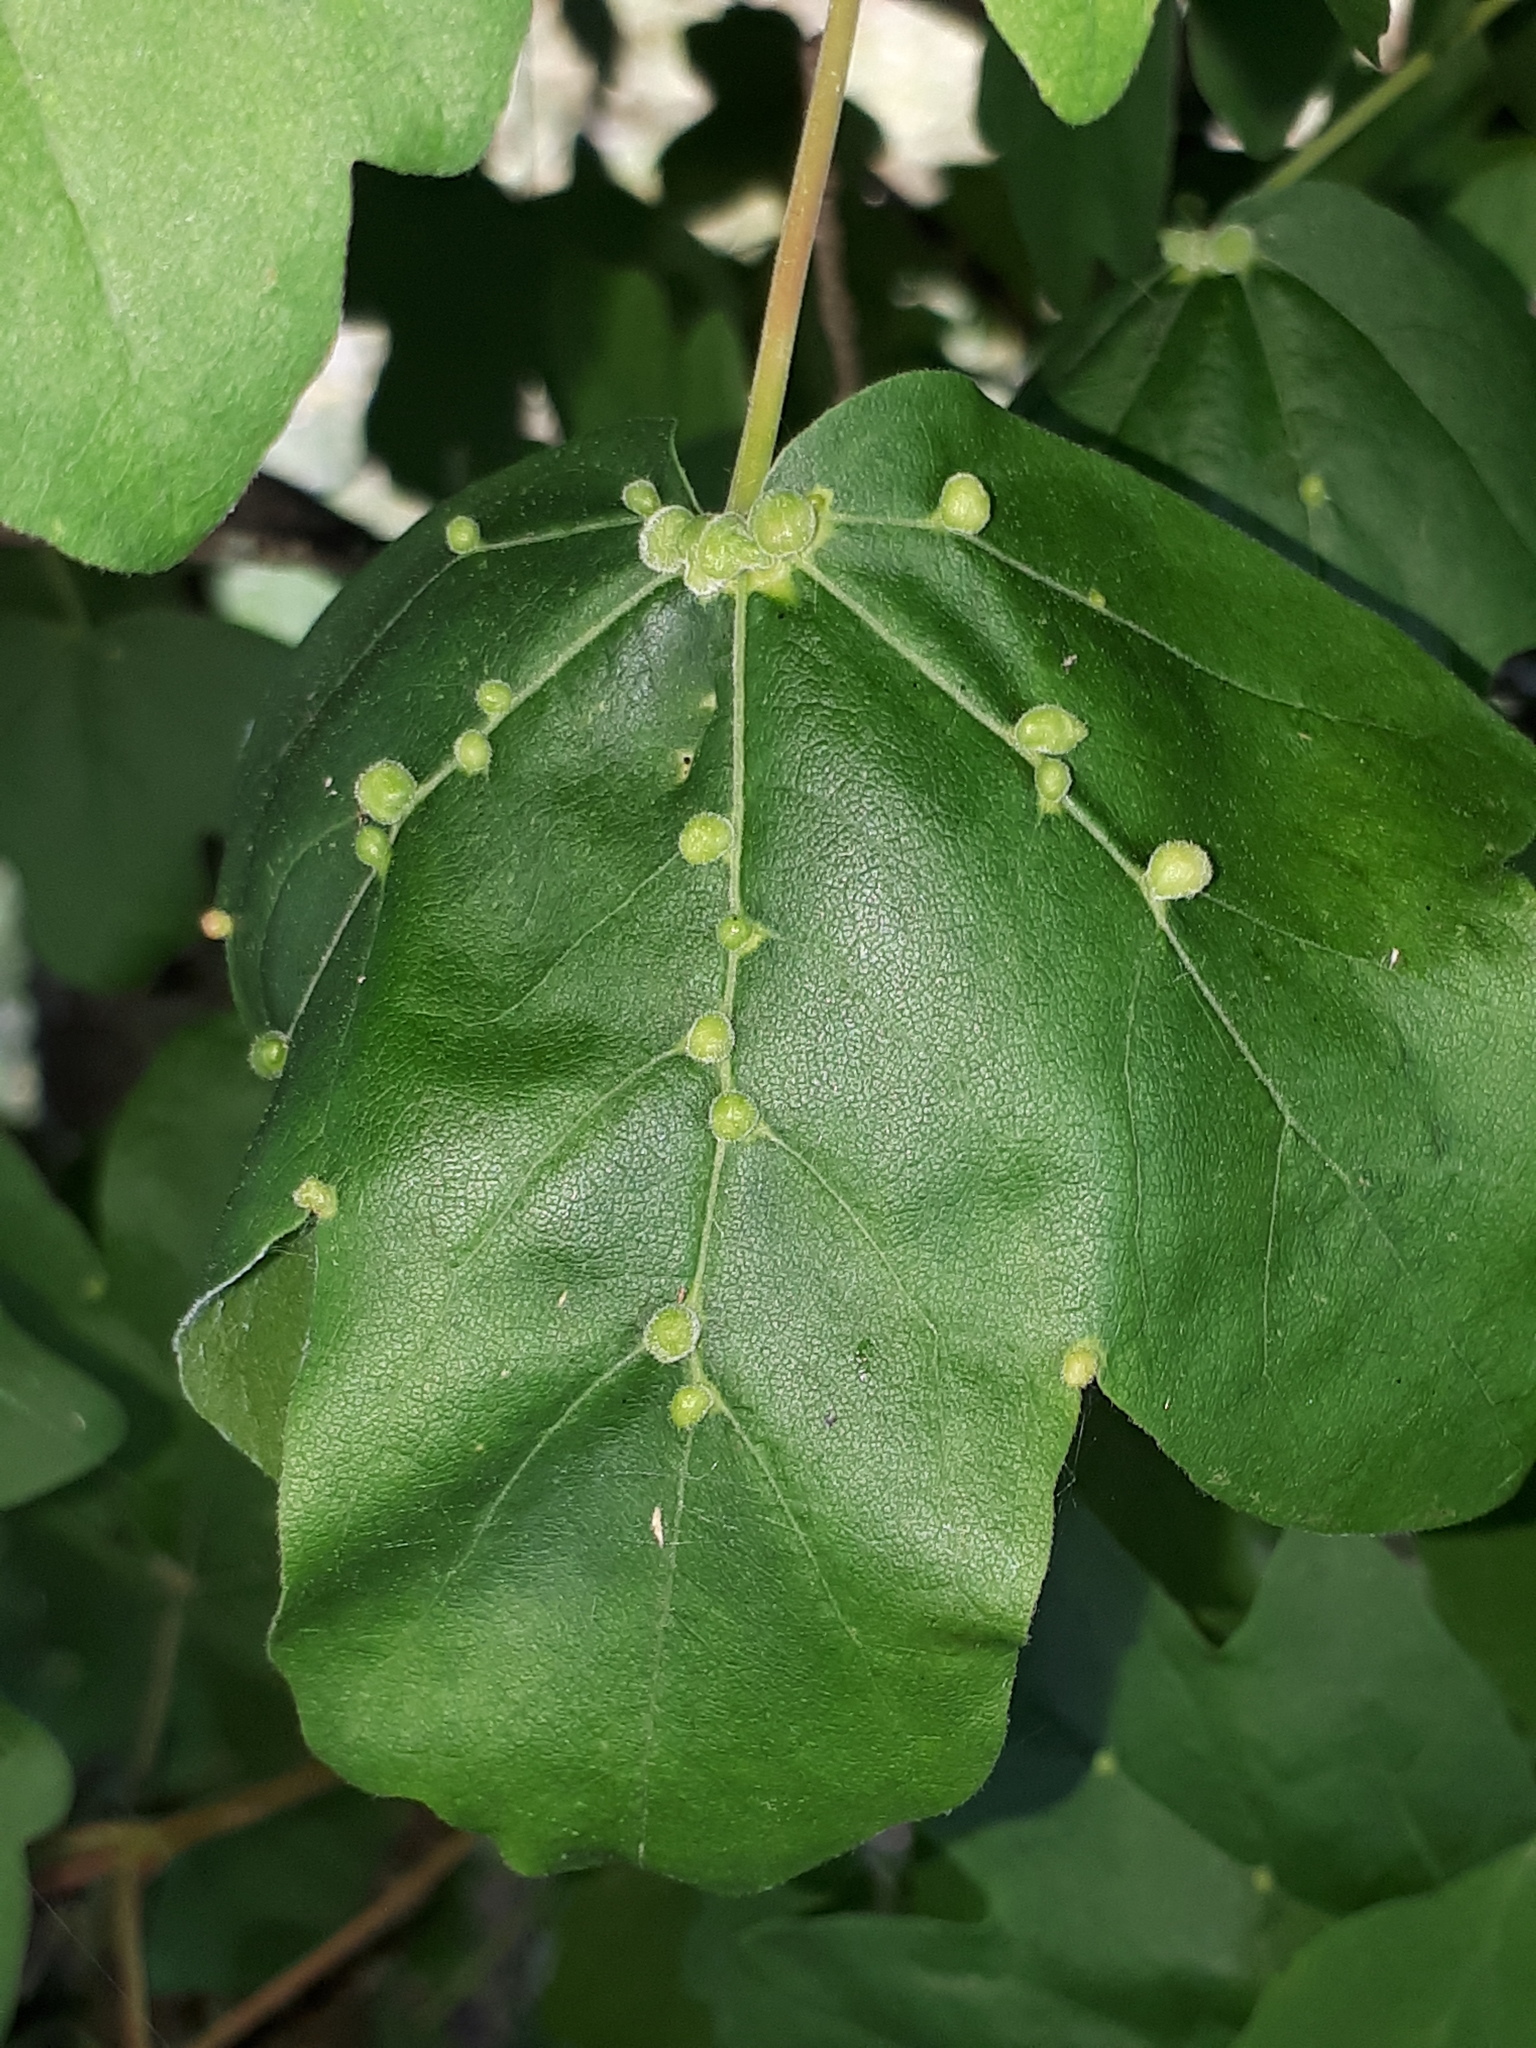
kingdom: Animalia
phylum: Arthropoda
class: Arachnida
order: Trombidiformes
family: Eriophyidae
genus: Aceria
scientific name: Aceria macrochelus
